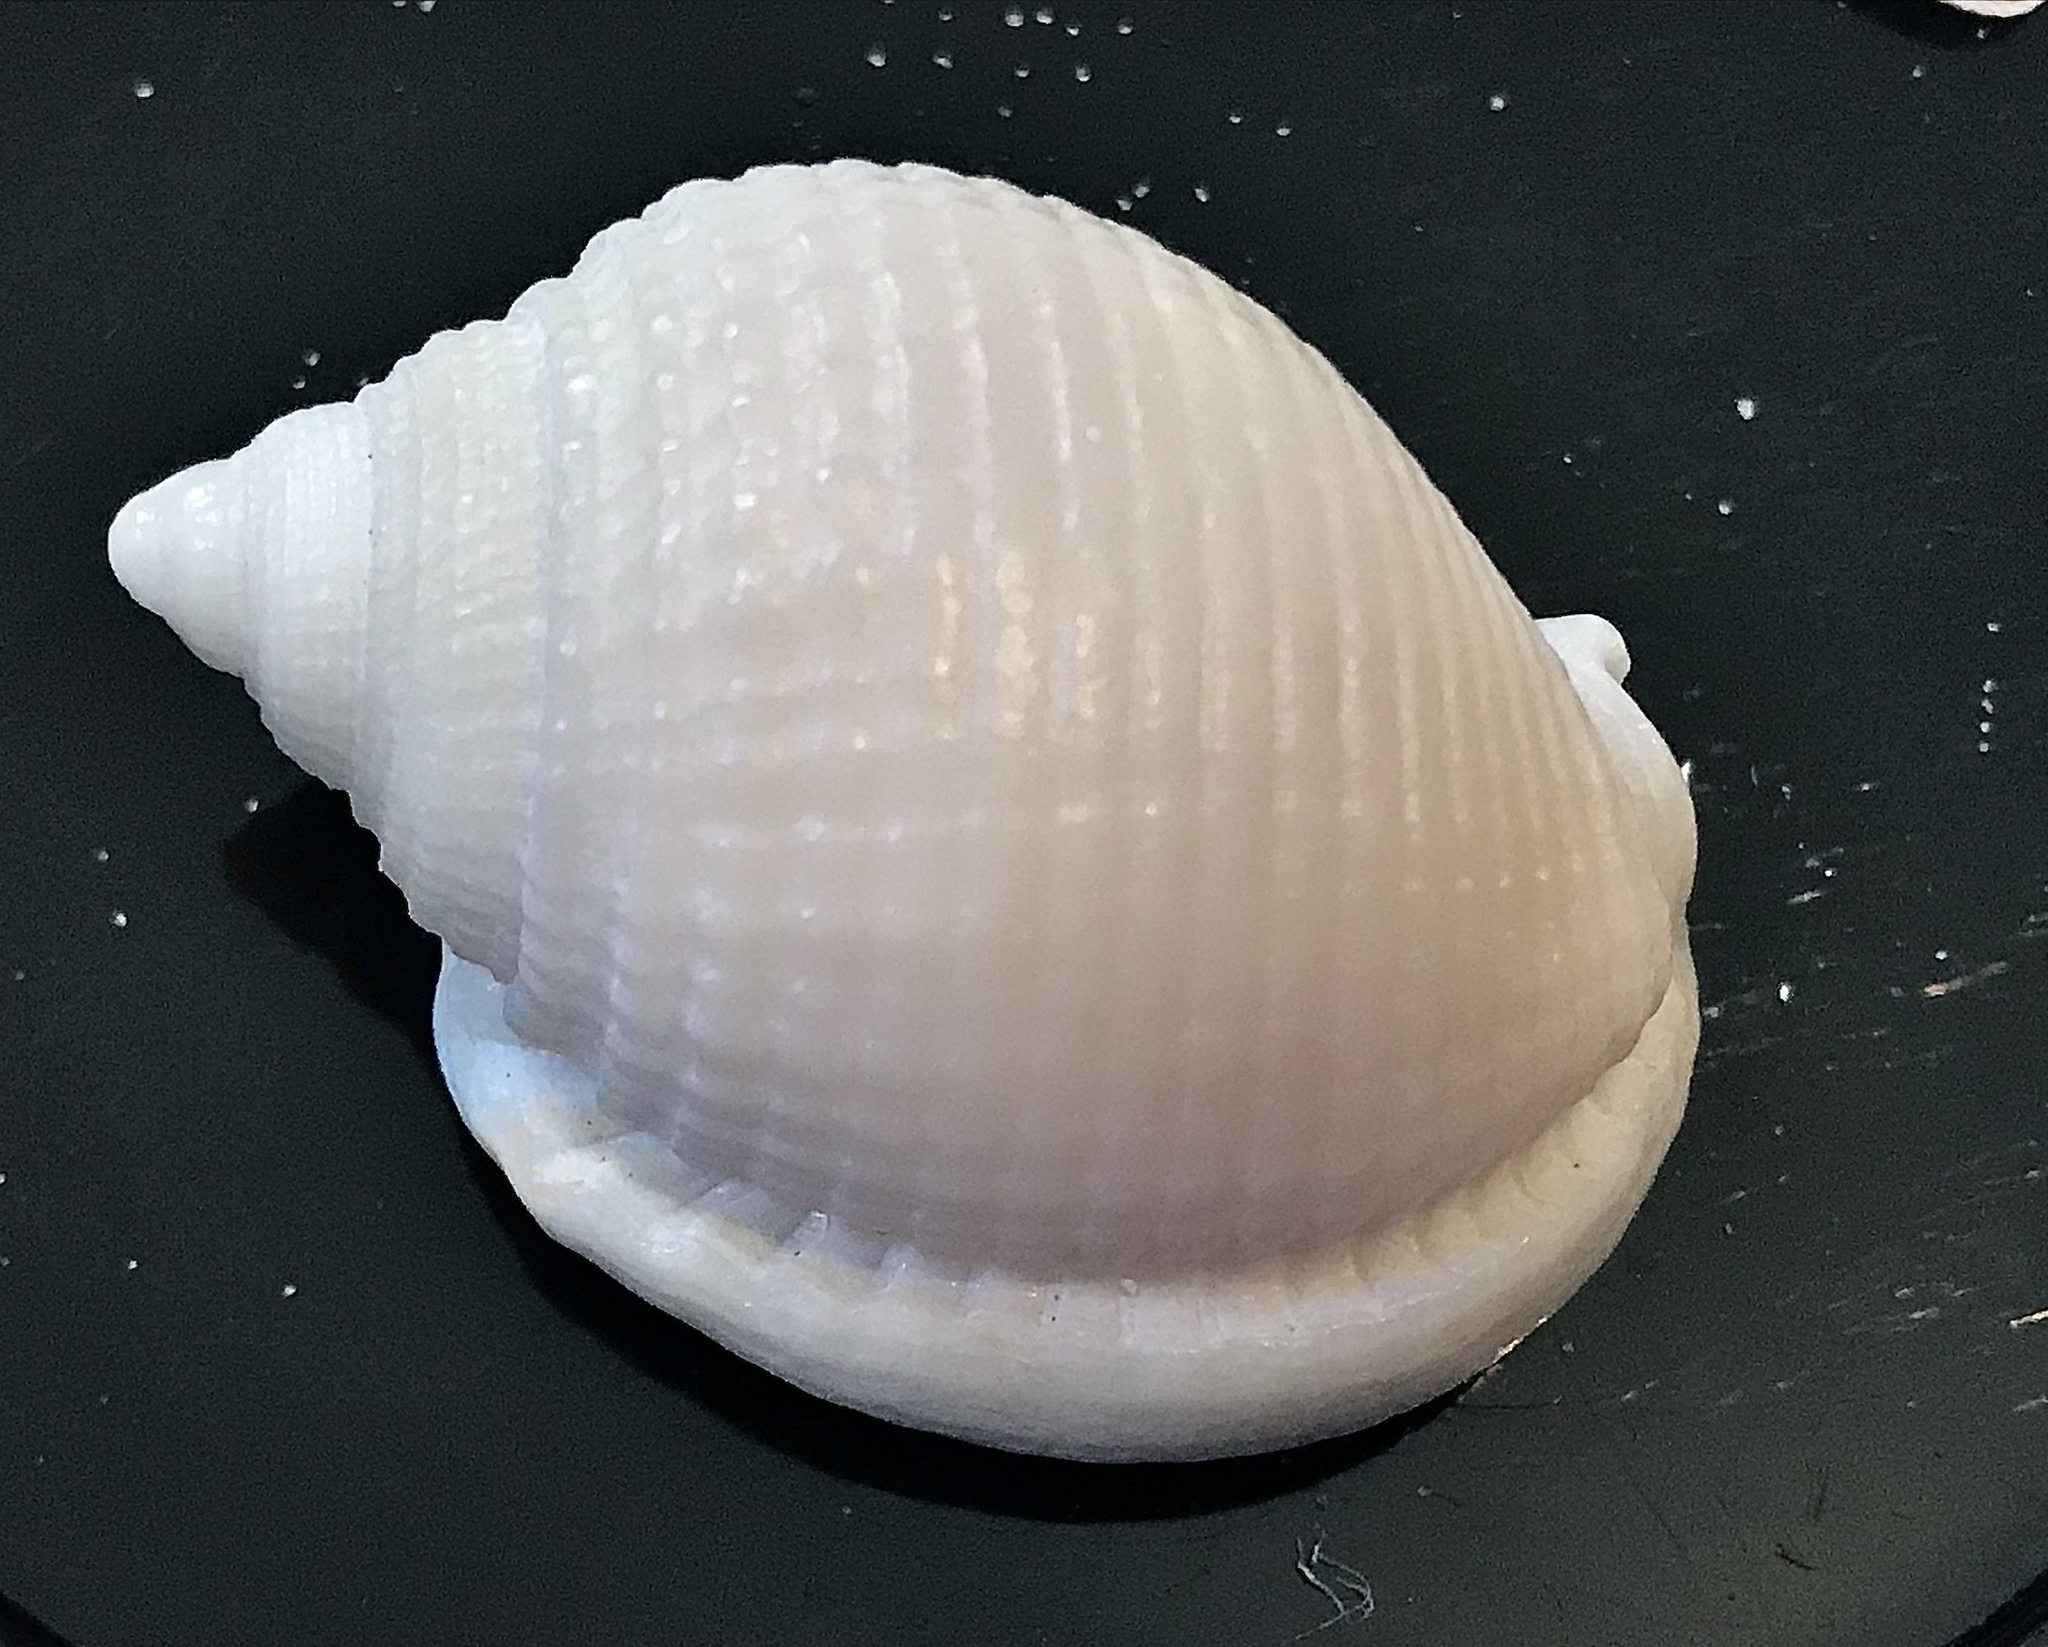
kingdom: Animalia
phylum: Mollusca
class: Gastropoda
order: Littorinimorpha
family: Cassidae
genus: Semicassis
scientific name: Semicassis granulata
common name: Scotch bonnet
